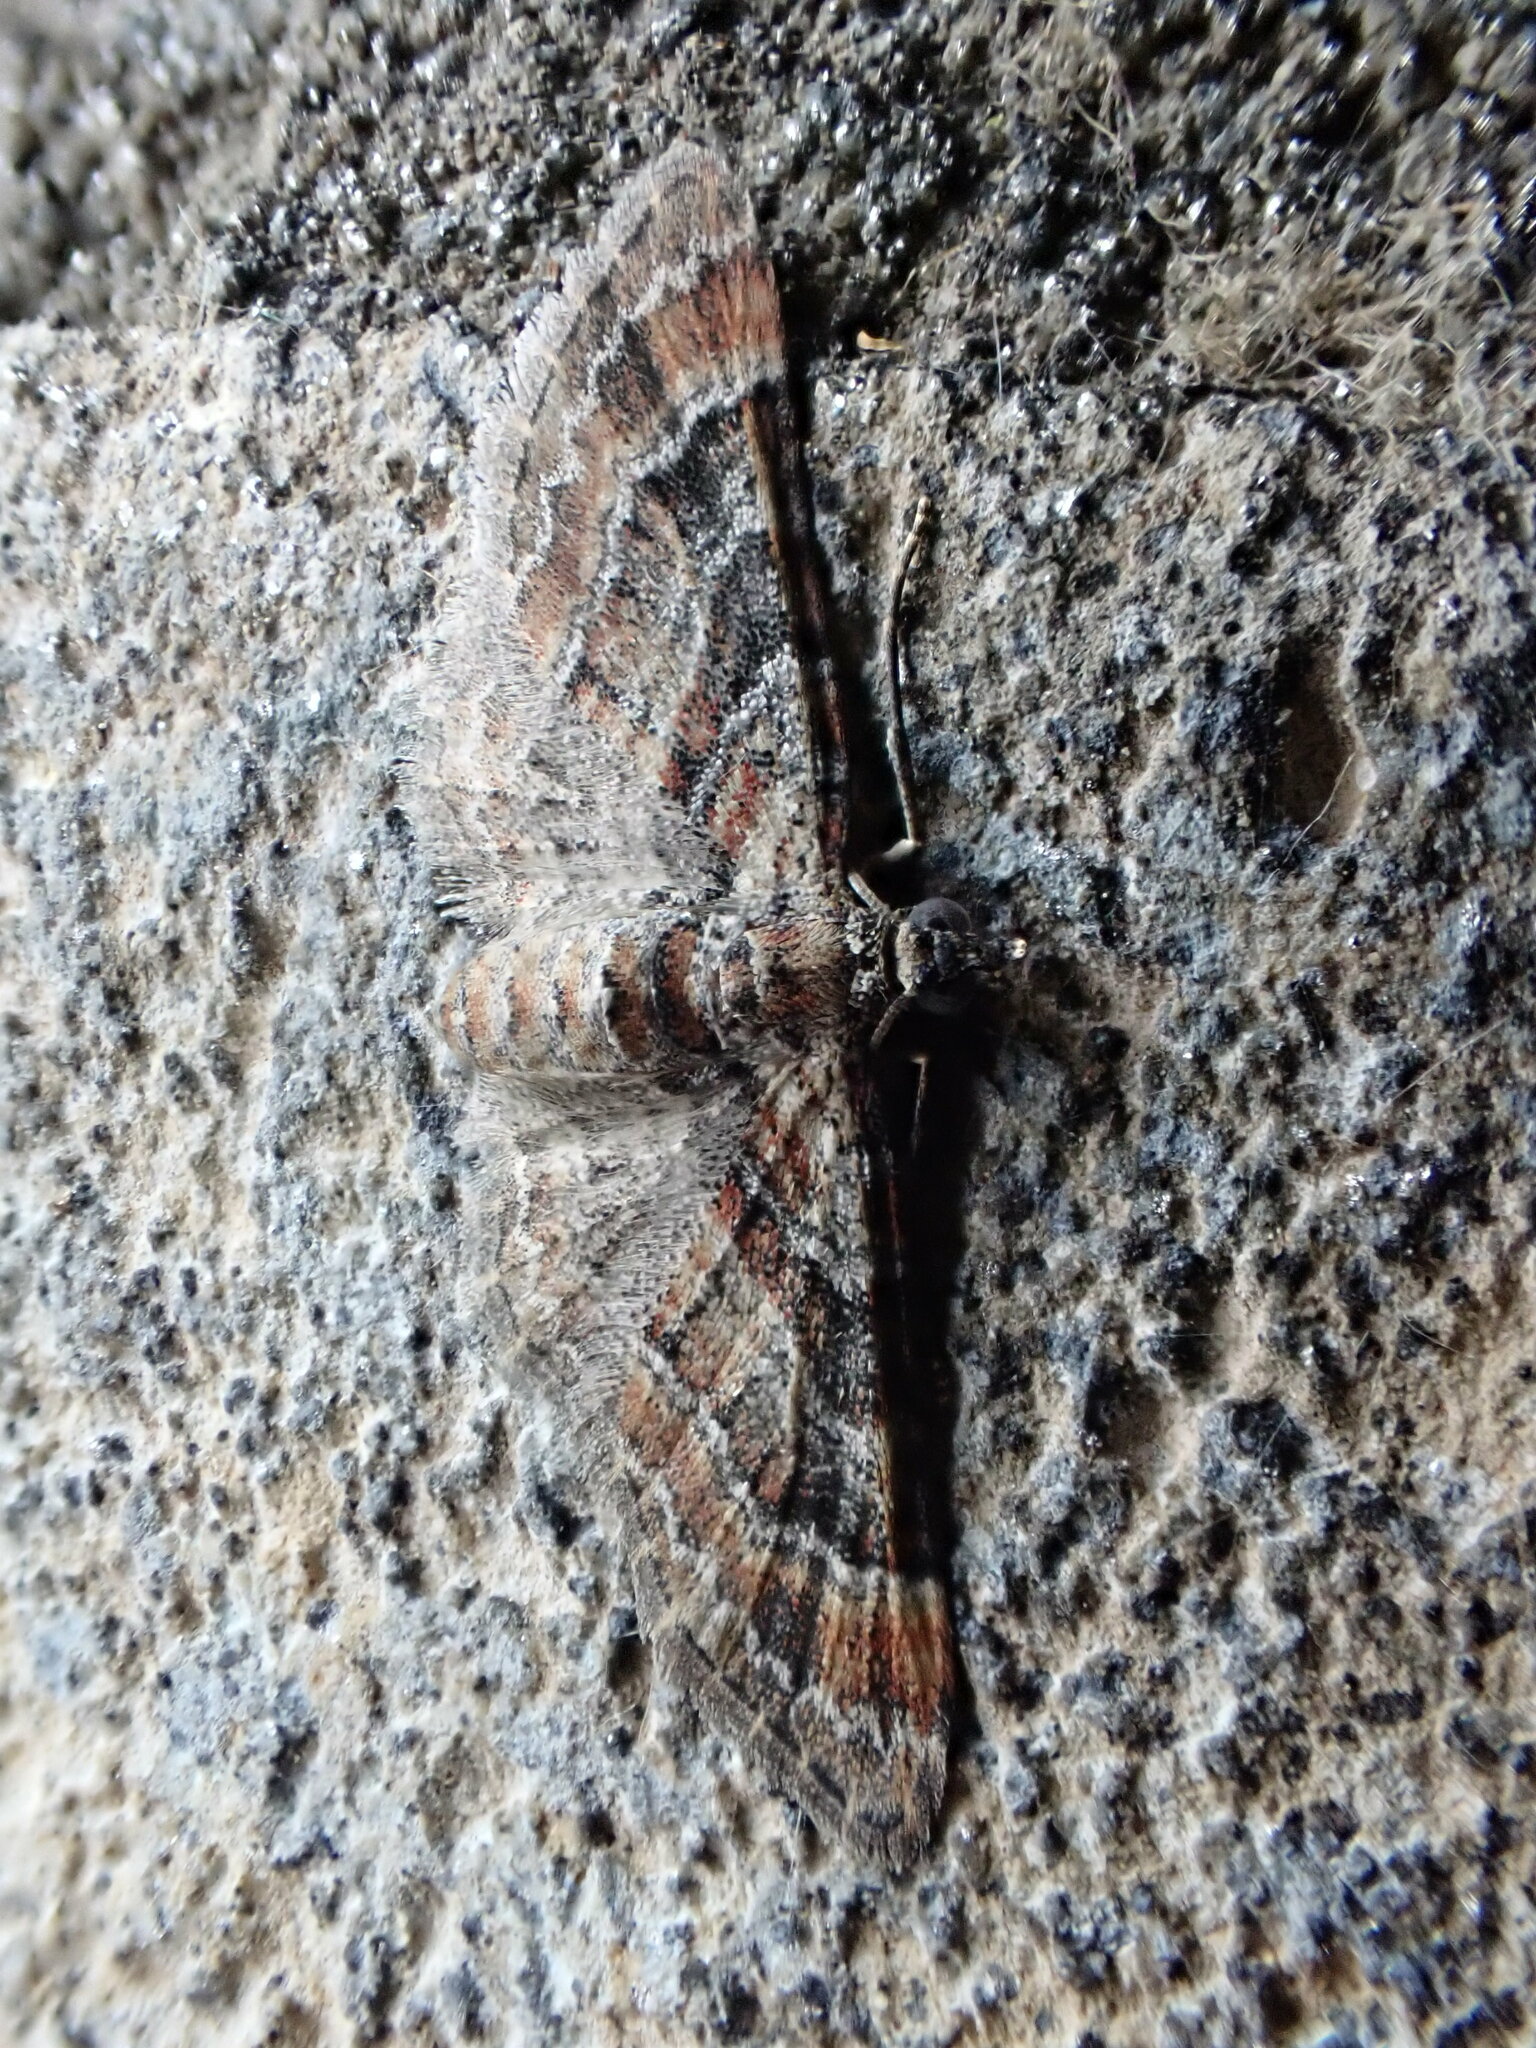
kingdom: Animalia
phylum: Arthropoda
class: Insecta
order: Lepidoptera
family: Geometridae
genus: Gymnoscelis
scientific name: Gymnoscelis rufifasciata
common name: Double-striped pug
